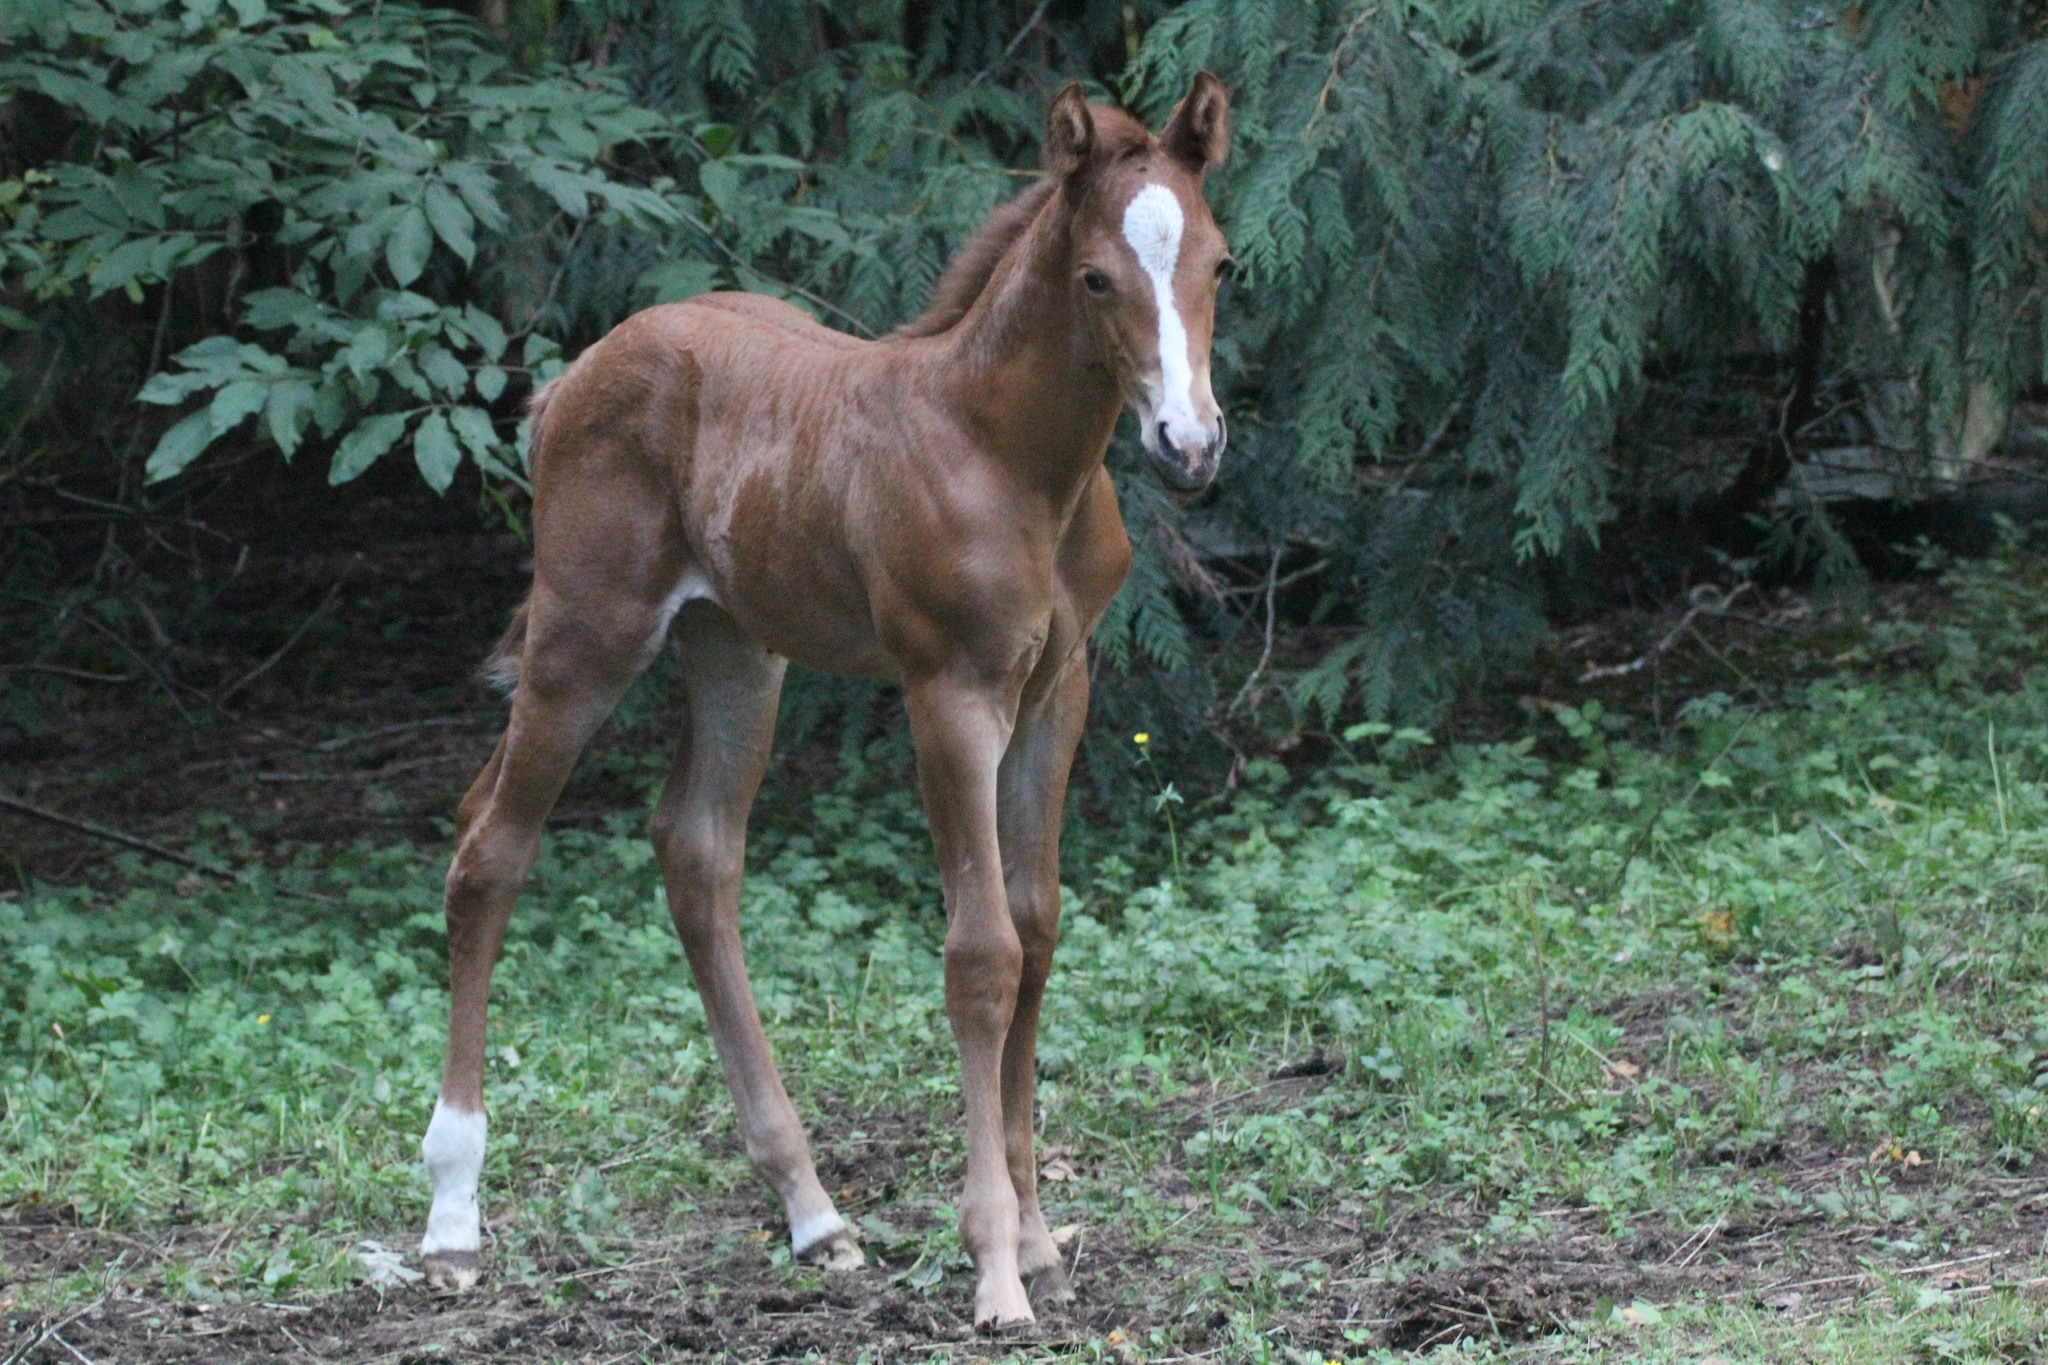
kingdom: Animalia
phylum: Chordata
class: Mammalia
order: Perissodactyla
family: Equidae
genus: Equus
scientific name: Equus caballus
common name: Horse
